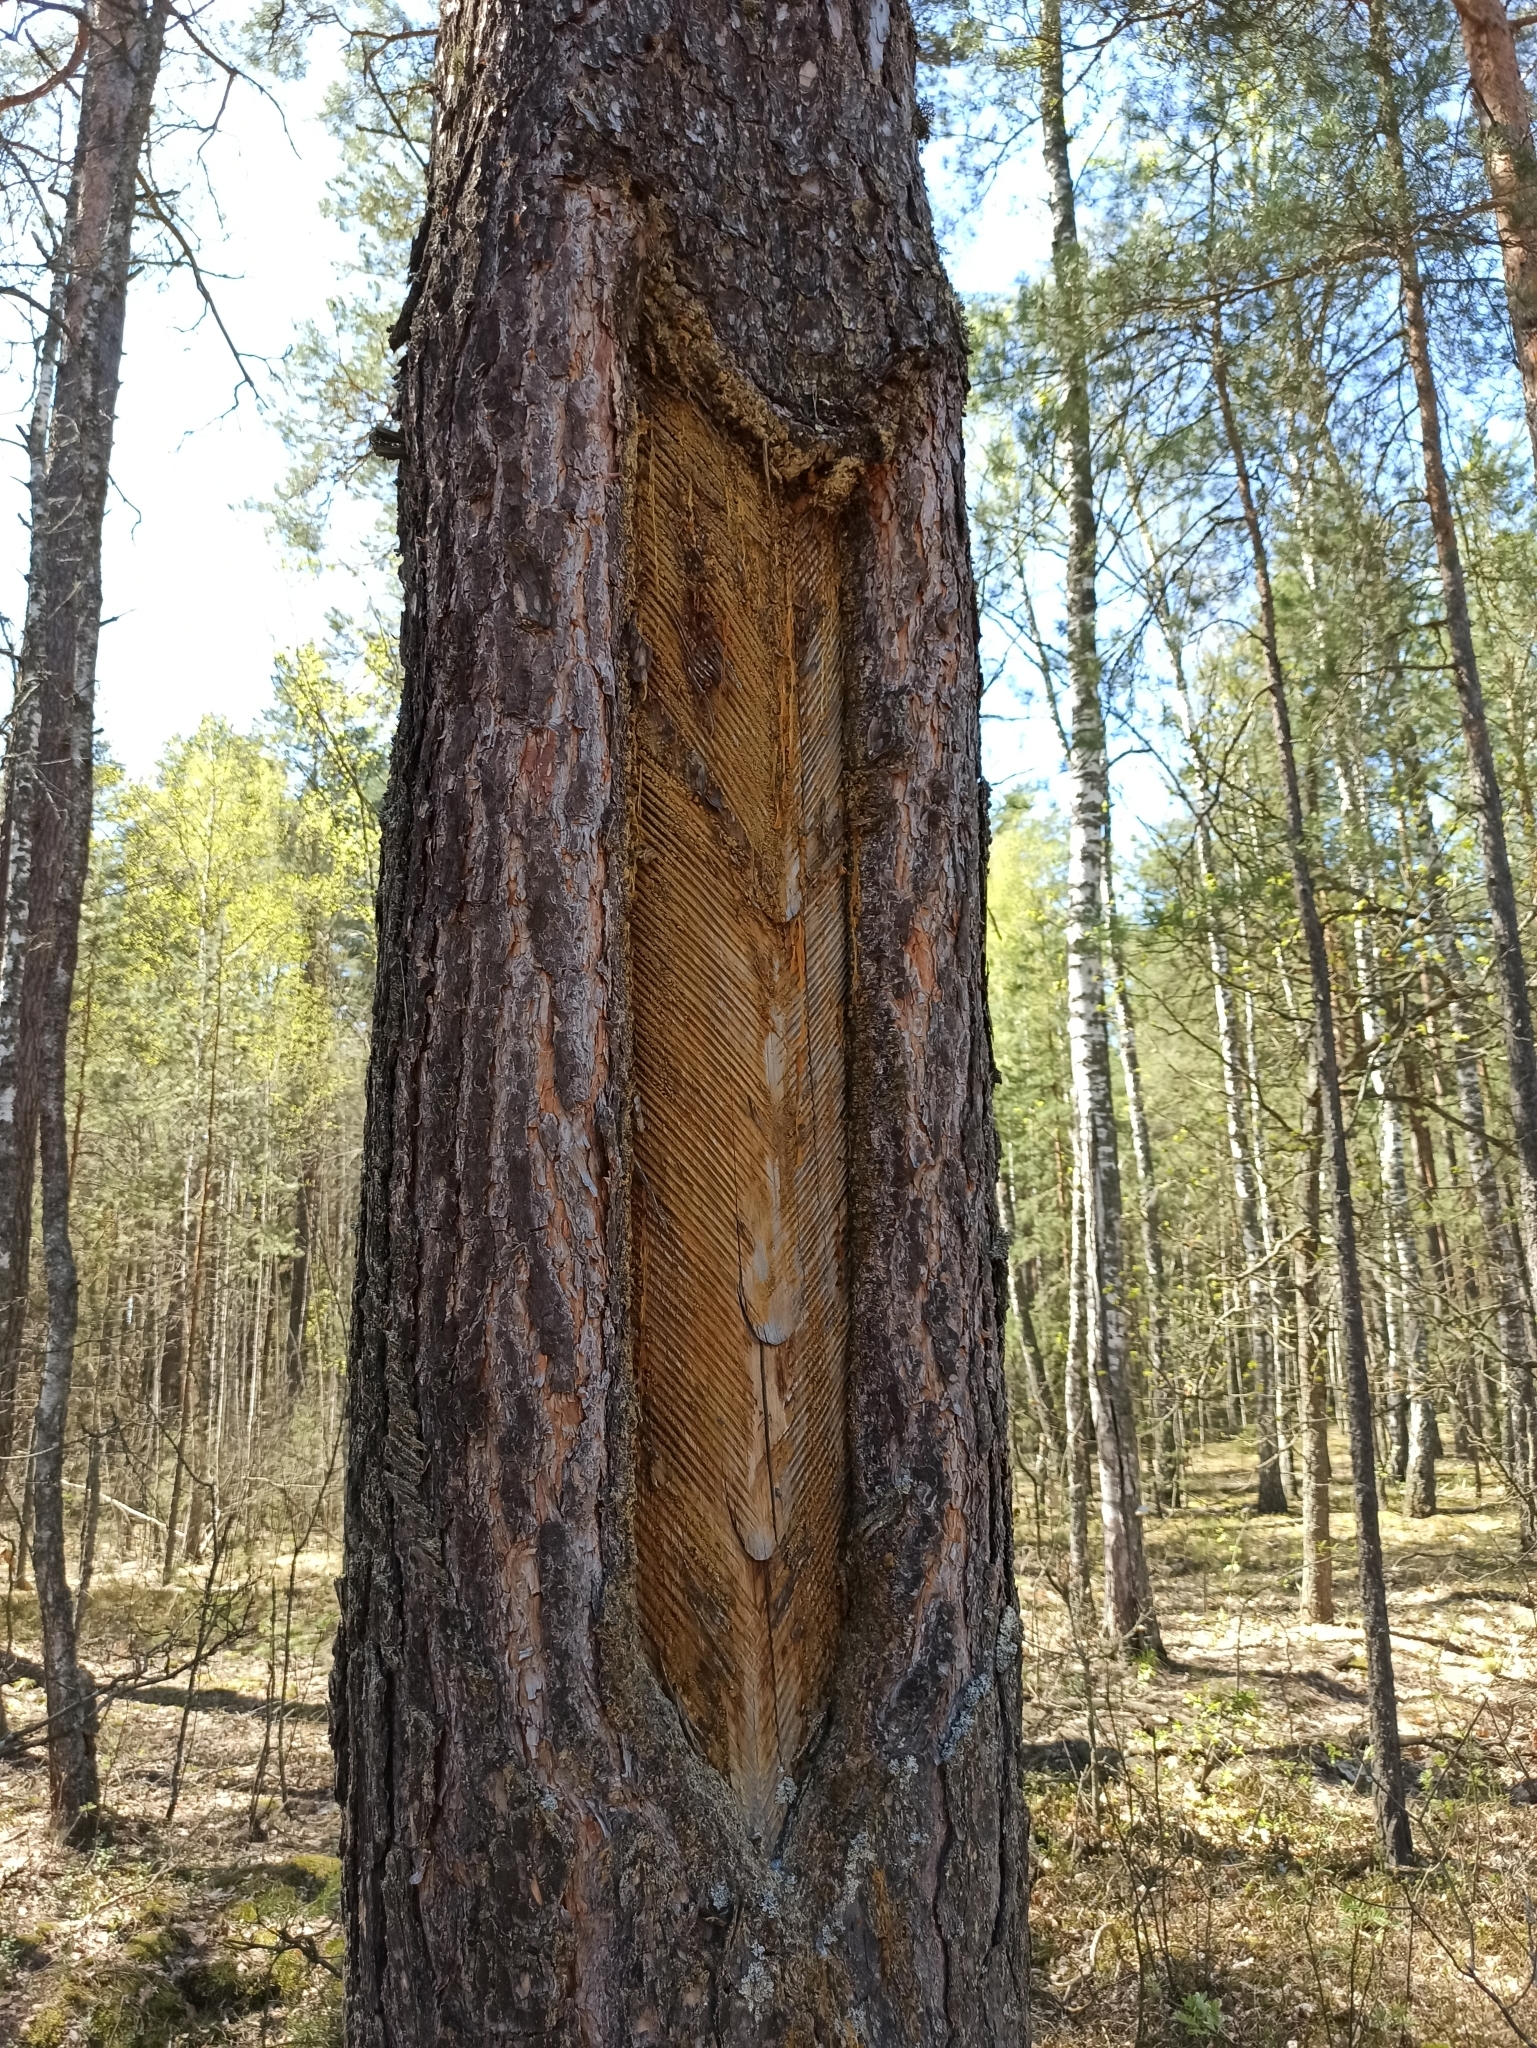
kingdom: Plantae
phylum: Tracheophyta
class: Pinopsida
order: Pinales
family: Pinaceae
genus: Pinus
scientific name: Pinus sylvestris
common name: Scots pine
